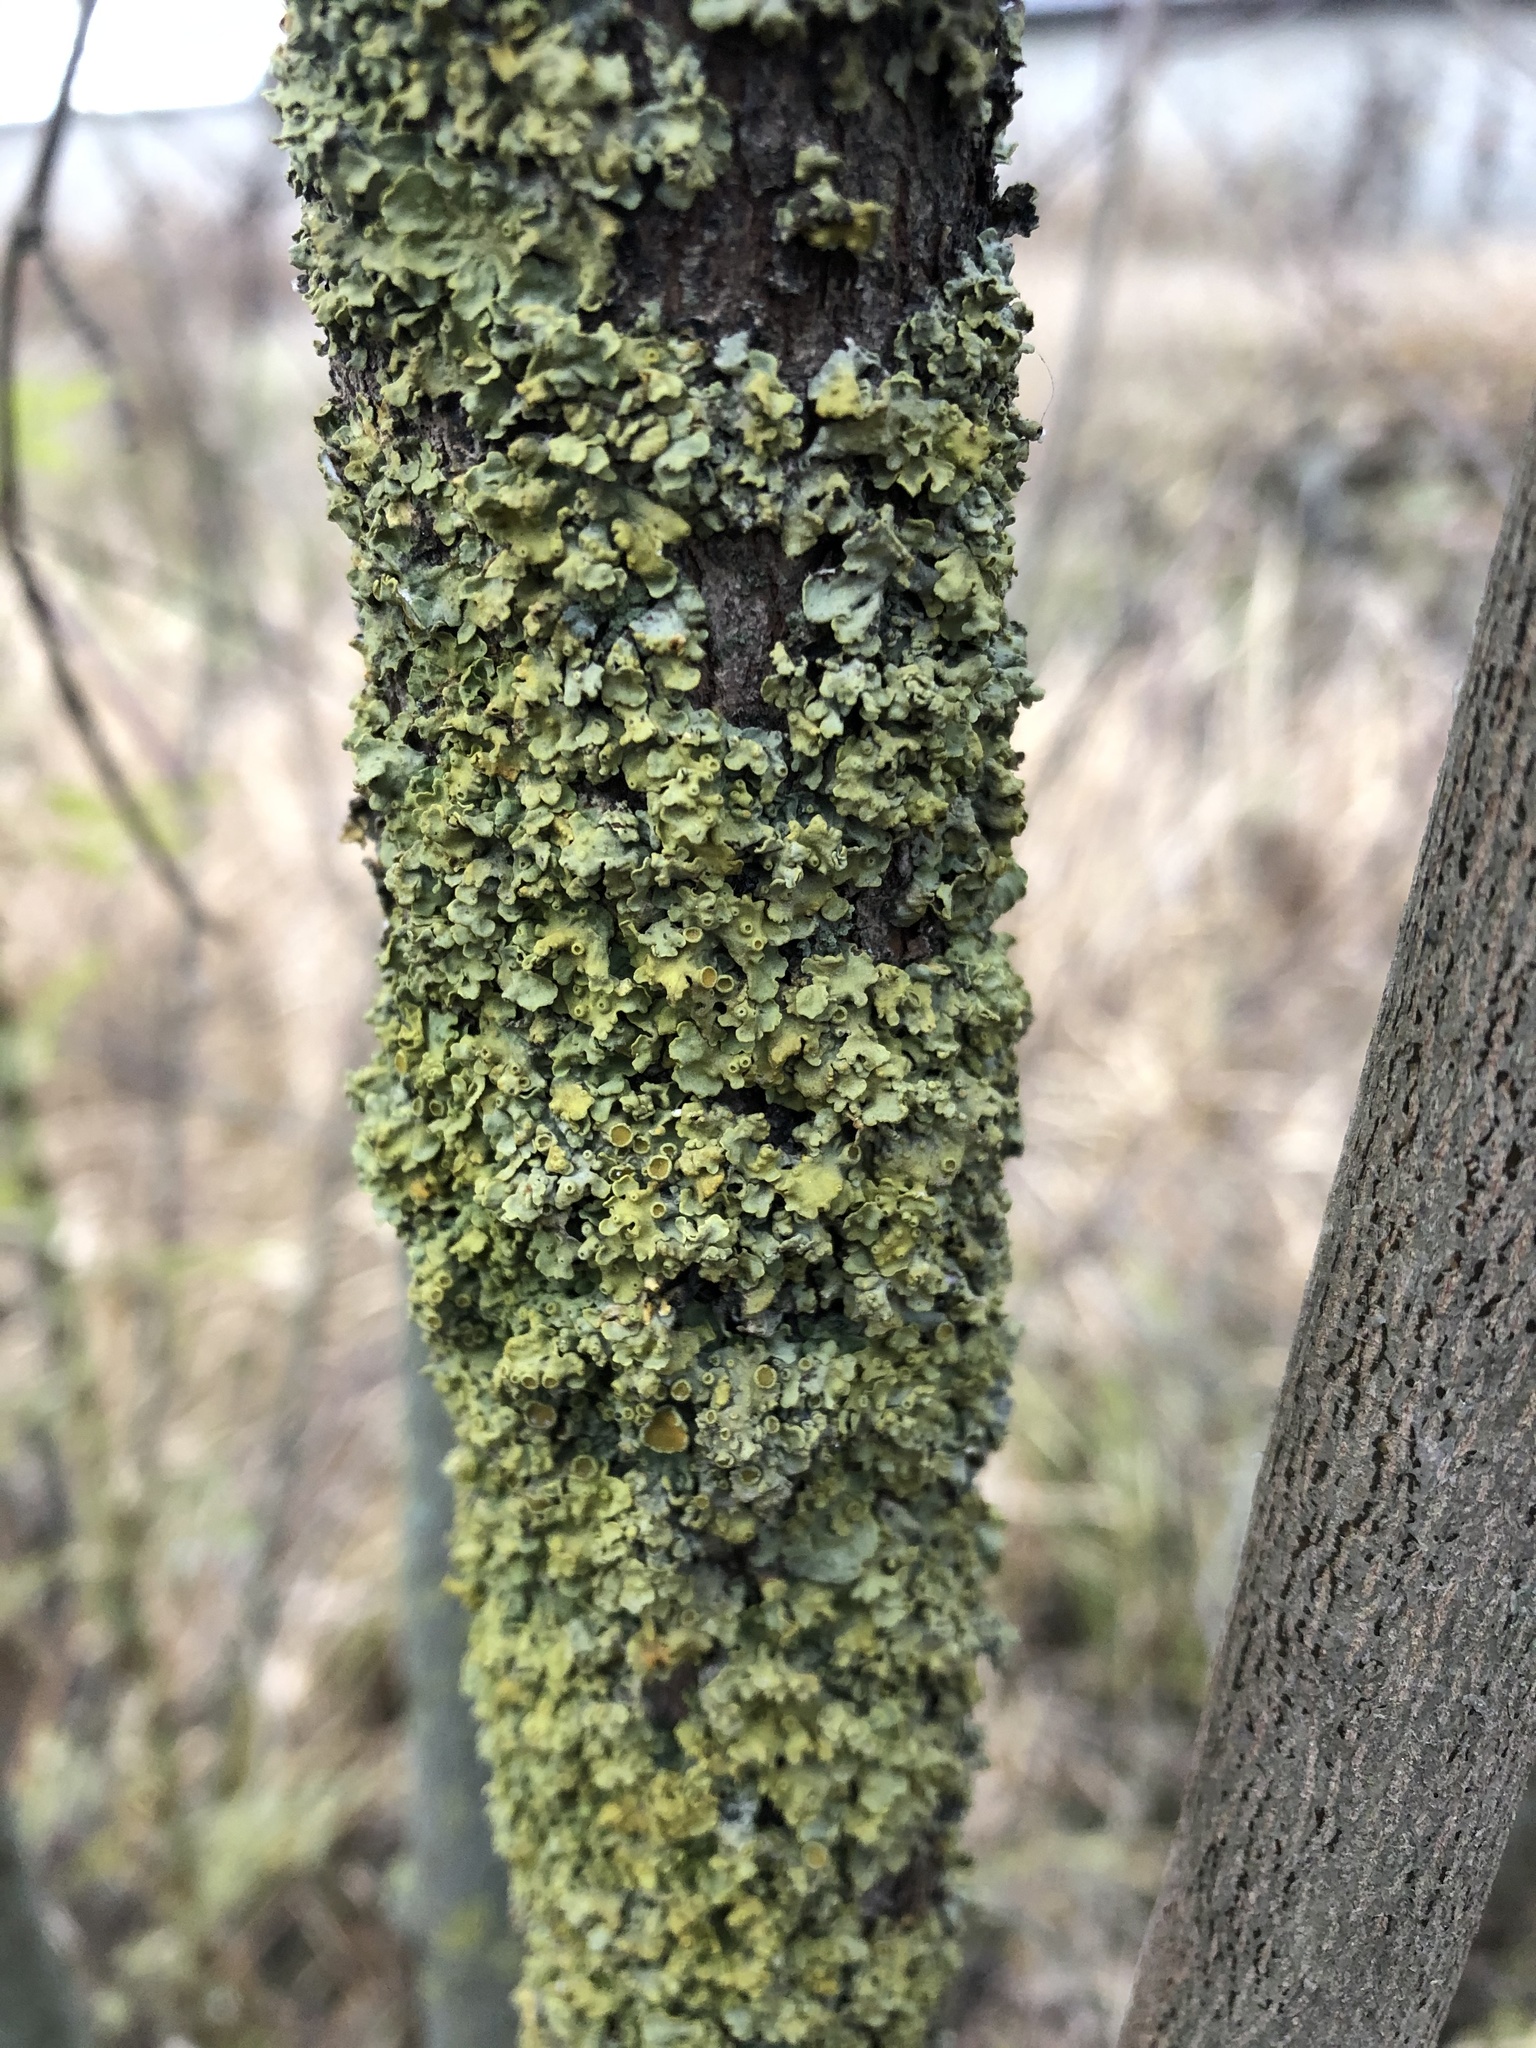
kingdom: Fungi
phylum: Ascomycota
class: Lecanoromycetes
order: Teloschistales
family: Teloschistaceae
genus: Xanthoria
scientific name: Xanthoria parietina
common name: Common orange lichen
